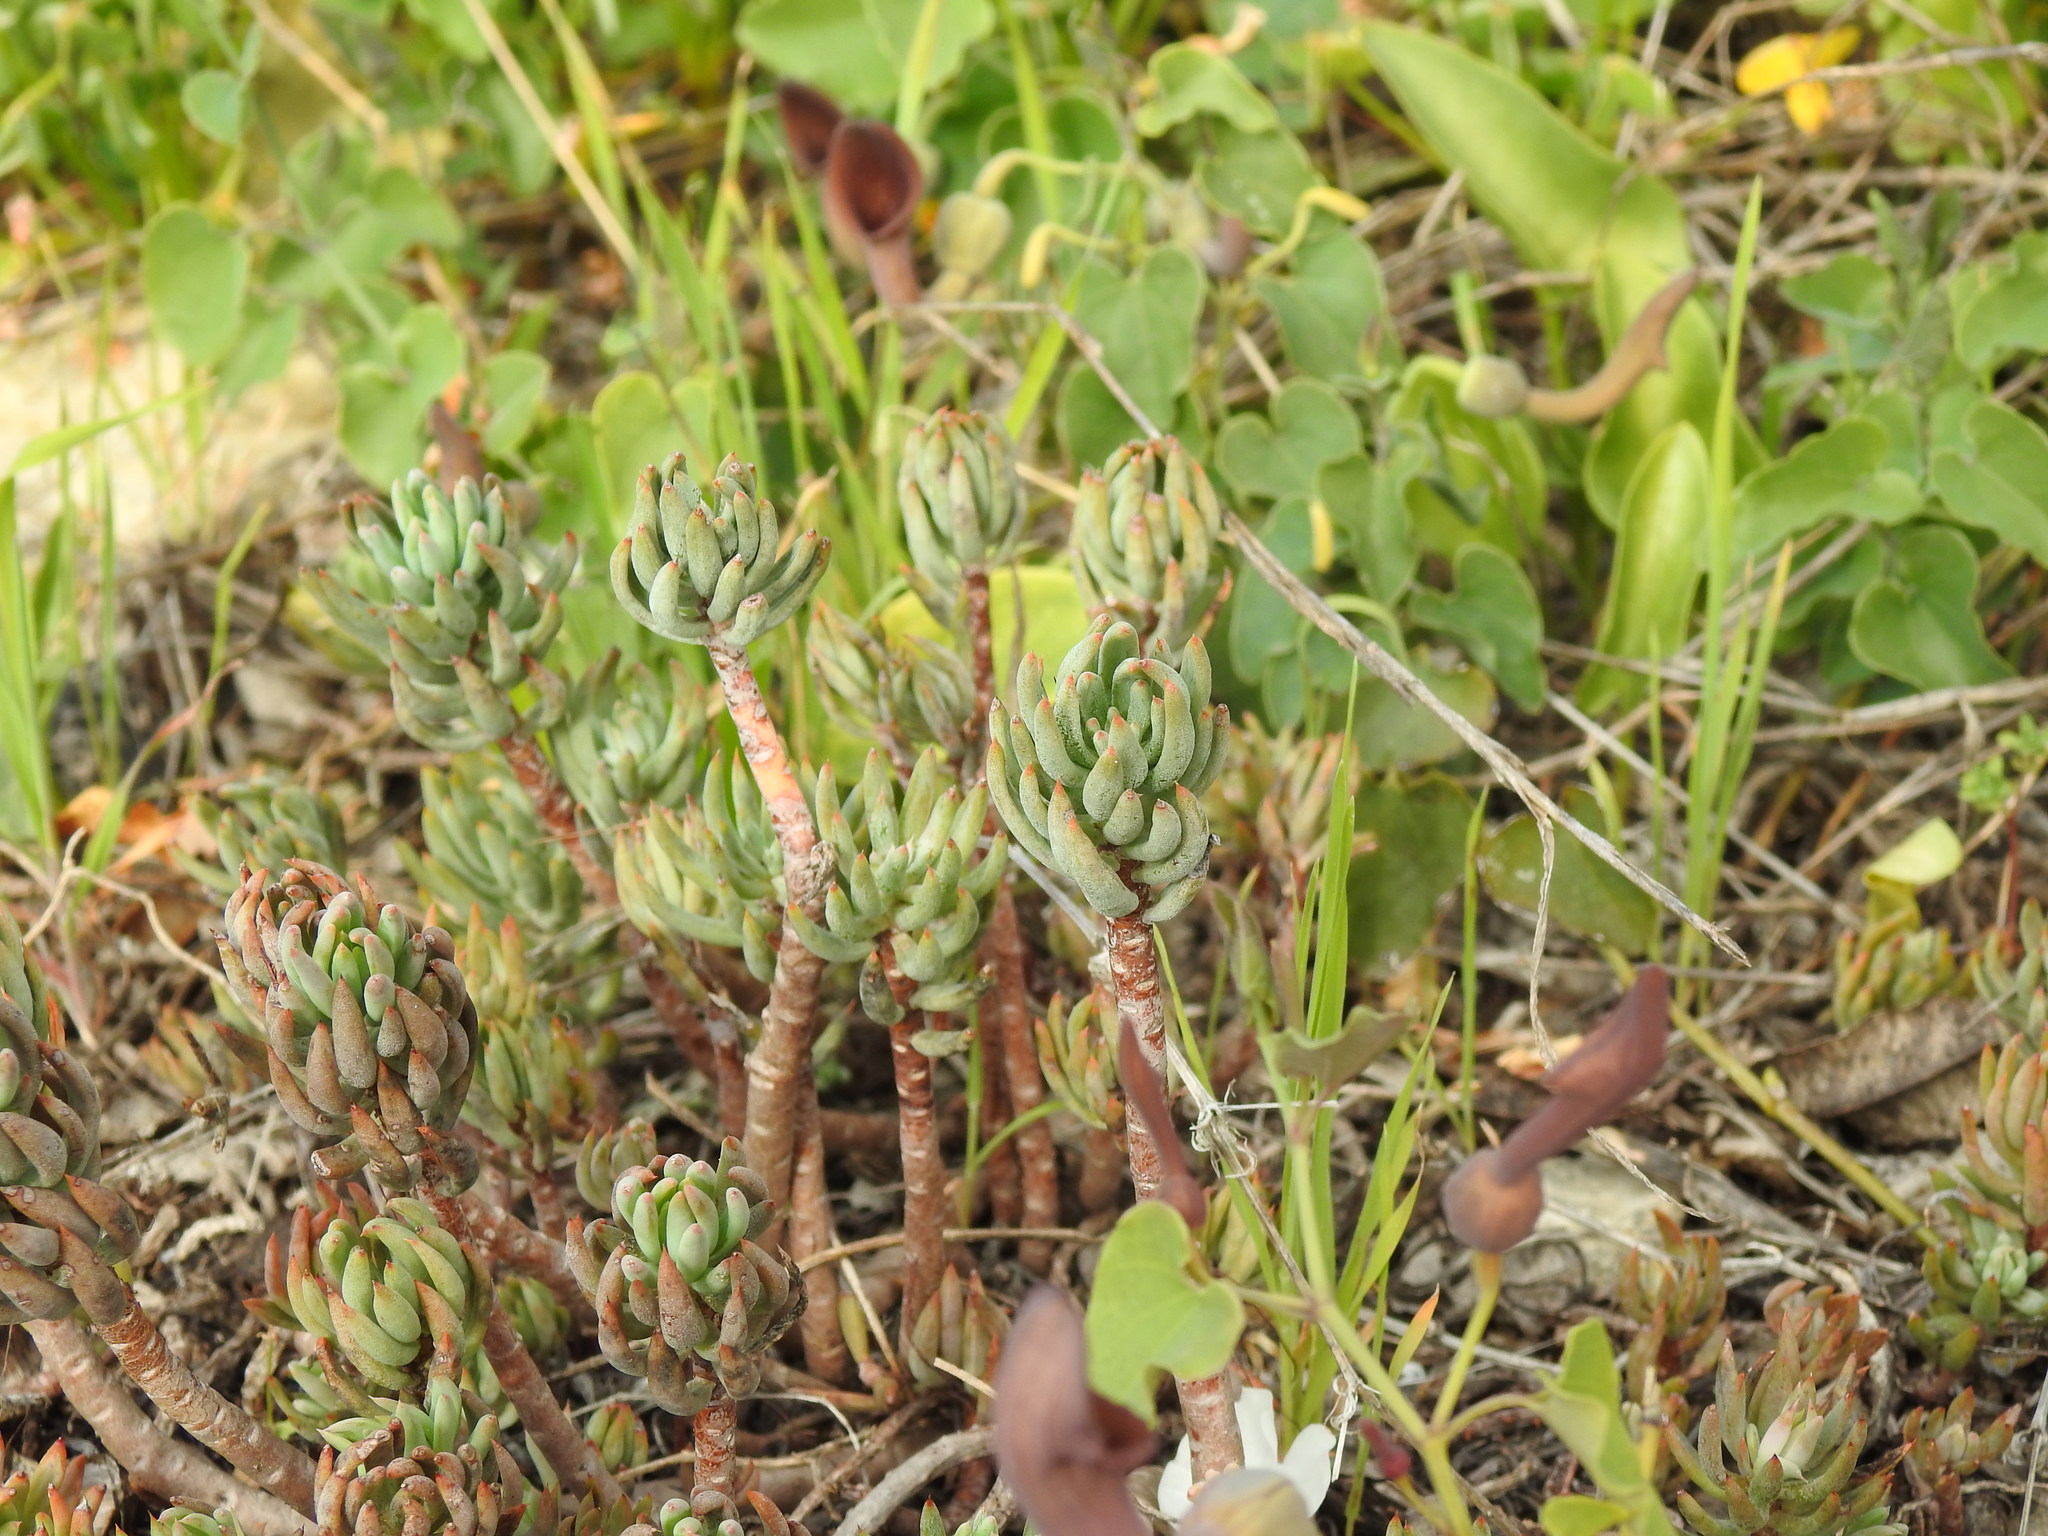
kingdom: Plantae
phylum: Tracheophyta
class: Magnoliopsida
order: Saxifragales
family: Crassulaceae
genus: Petrosedum
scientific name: Petrosedum sediforme
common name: Pale stonecrop
